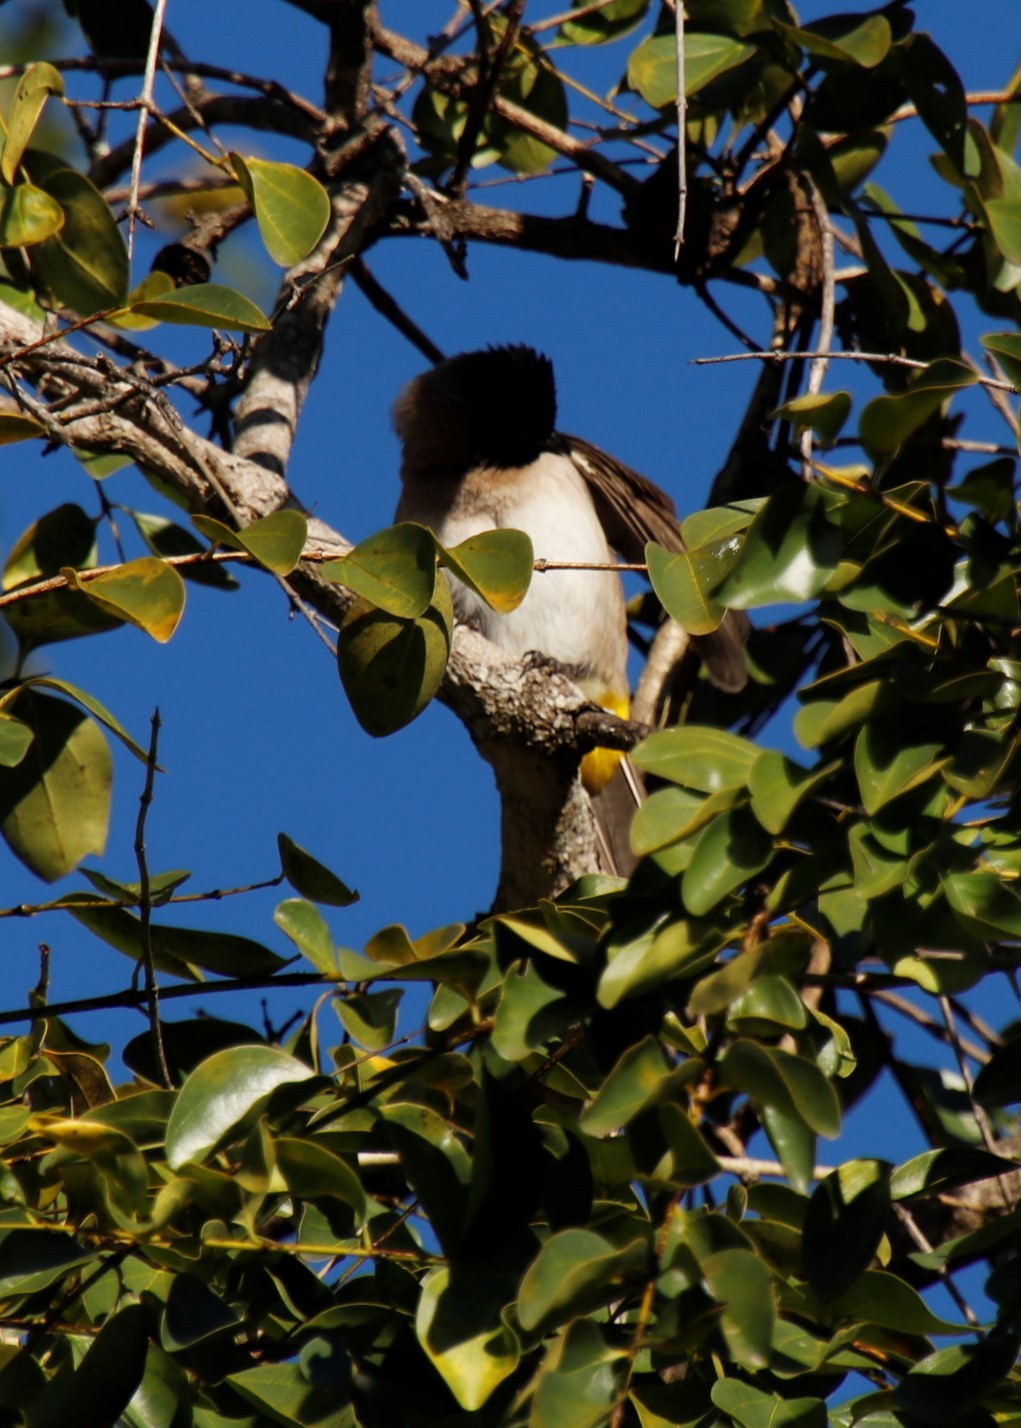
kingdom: Animalia
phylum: Chordata
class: Aves
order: Passeriformes
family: Pycnonotidae
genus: Pycnonotus
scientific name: Pycnonotus barbatus
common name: Common bulbul
